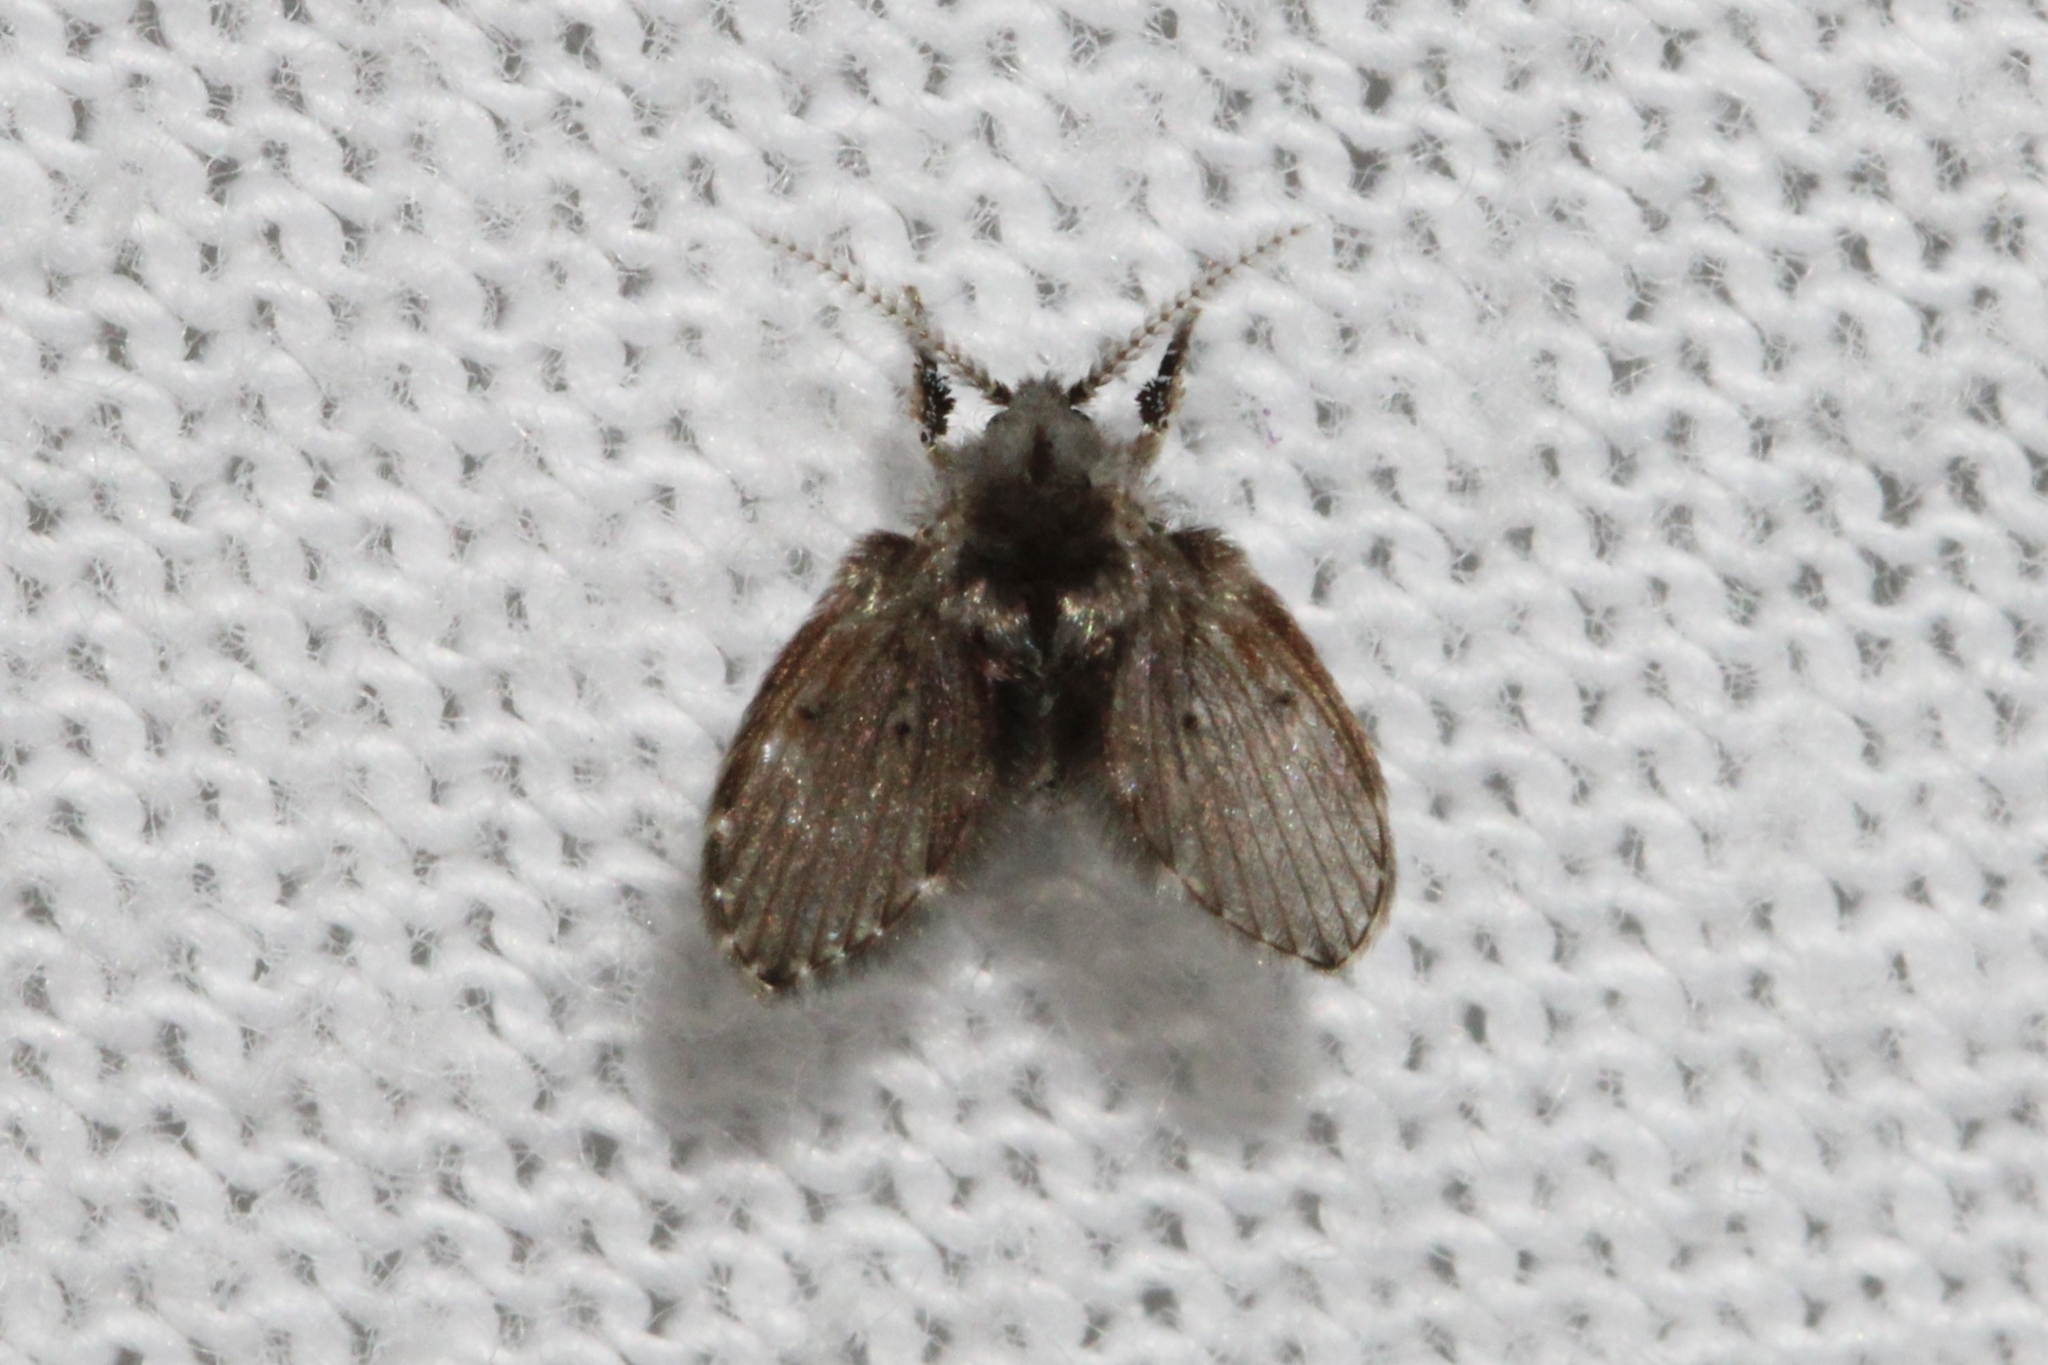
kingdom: Animalia
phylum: Arthropoda
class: Insecta
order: Diptera
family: Psychodidae
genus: Clogmia
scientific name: Clogmia albipunctatus
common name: White-spotted moth fly
